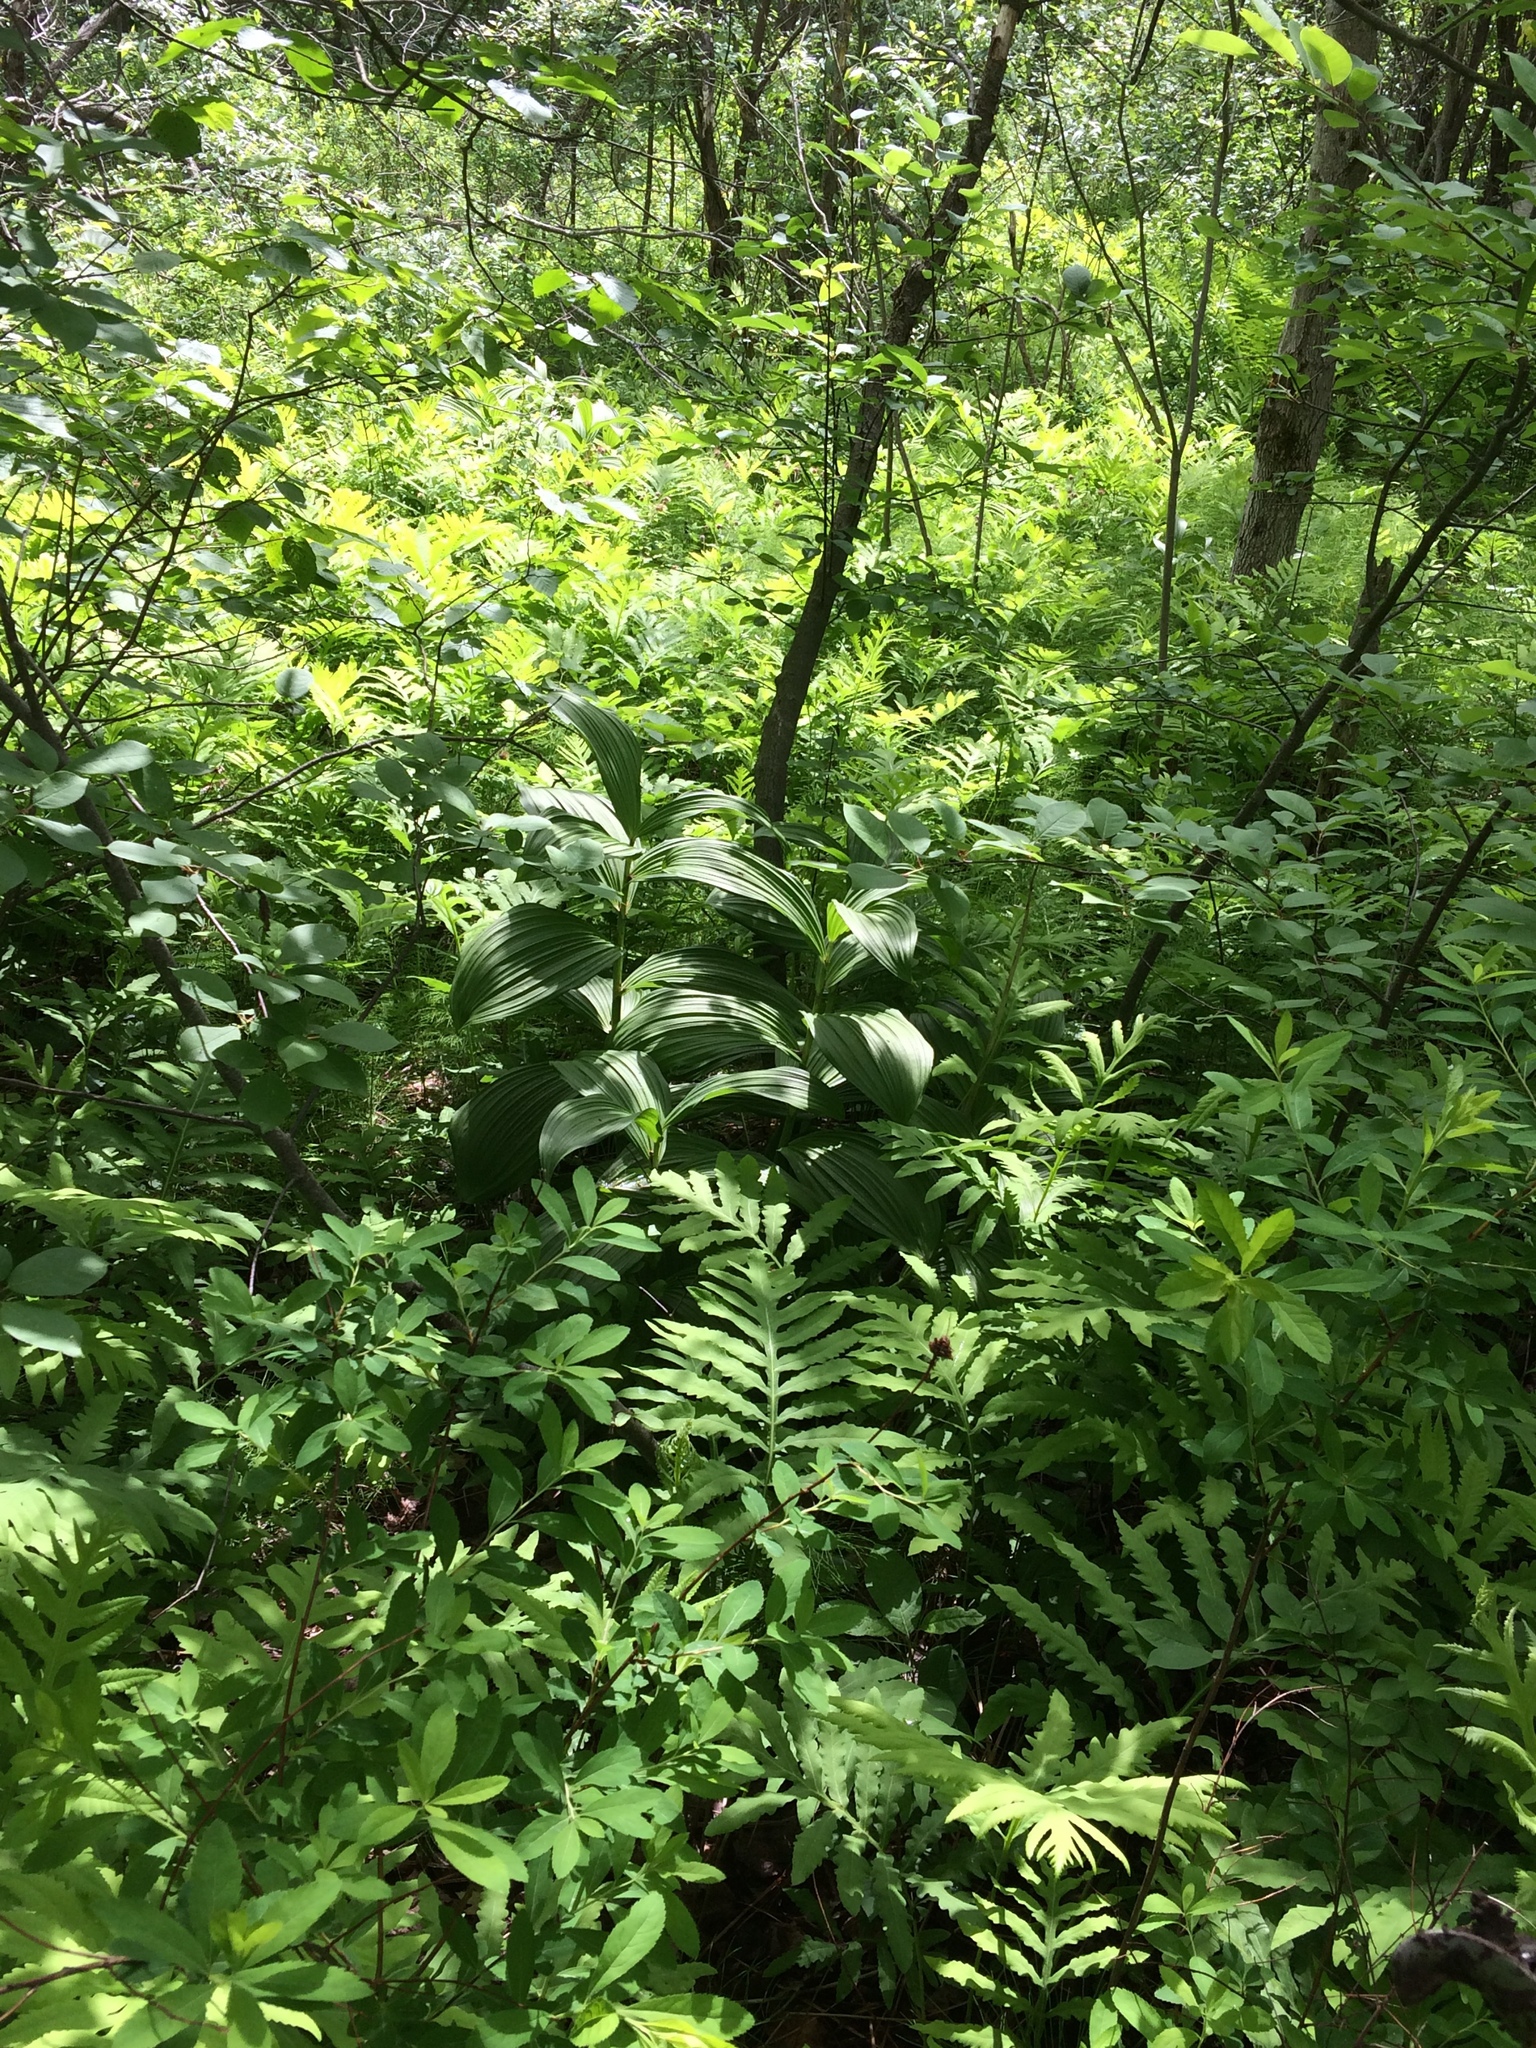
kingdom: Plantae
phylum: Tracheophyta
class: Liliopsida
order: Liliales
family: Melanthiaceae
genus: Veratrum
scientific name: Veratrum viride
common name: American false hellebore
